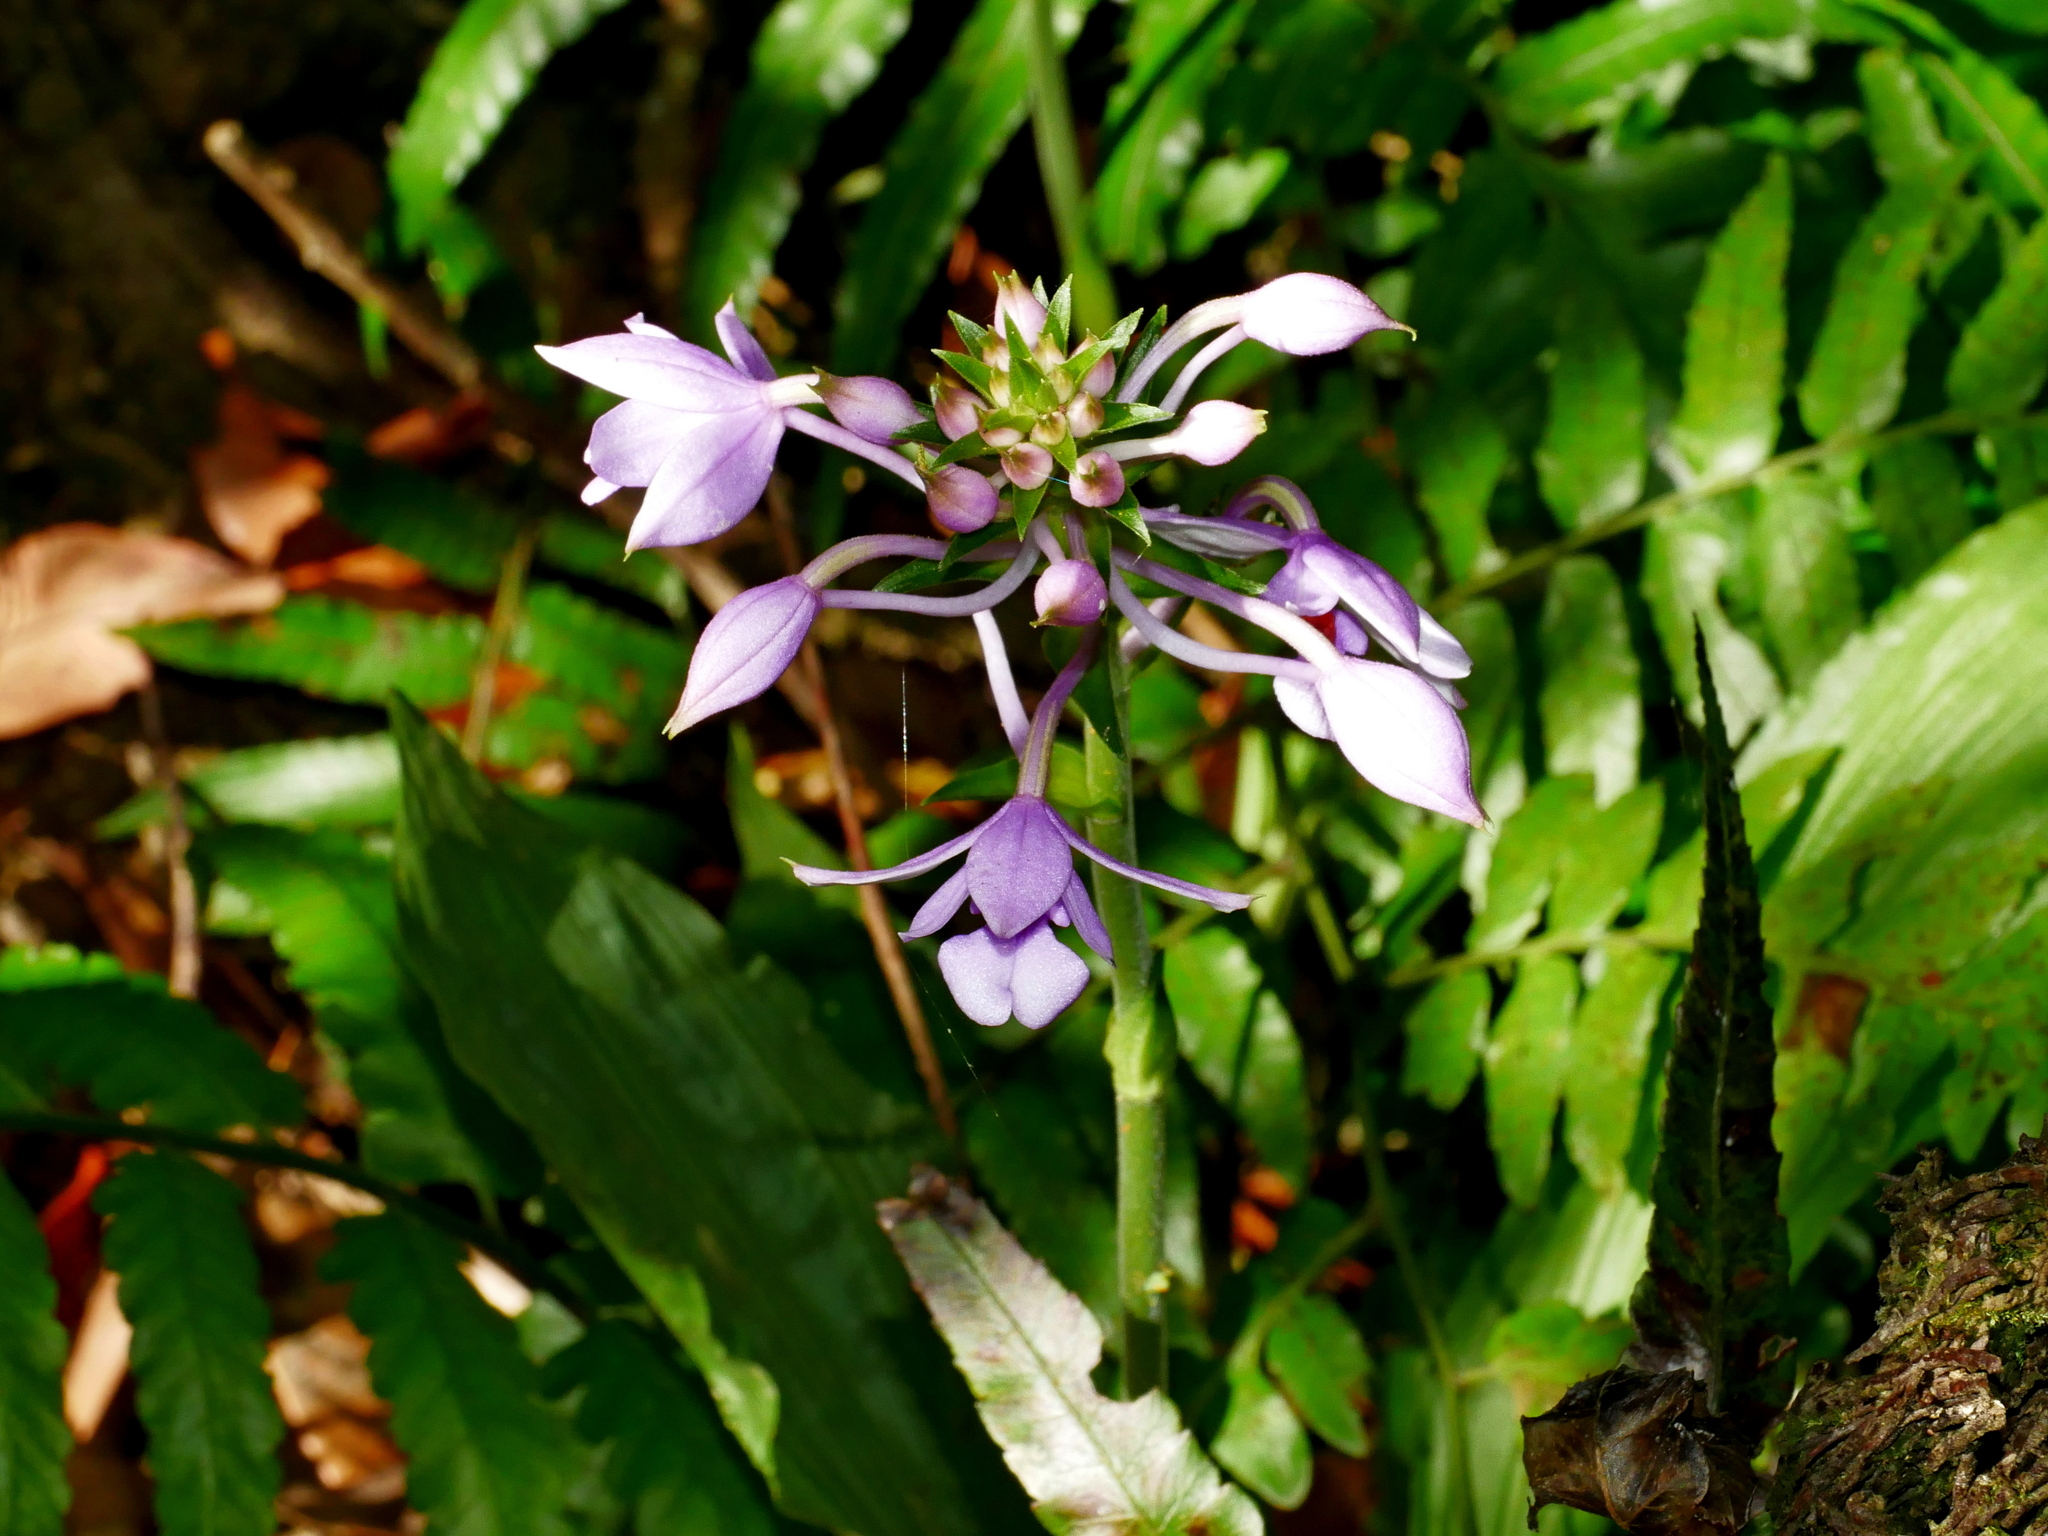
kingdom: Plantae
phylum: Tracheophyta
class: Liliopsida
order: Asparagales
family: Orchidaceae
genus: Calanthe
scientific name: Calanthe masuca
